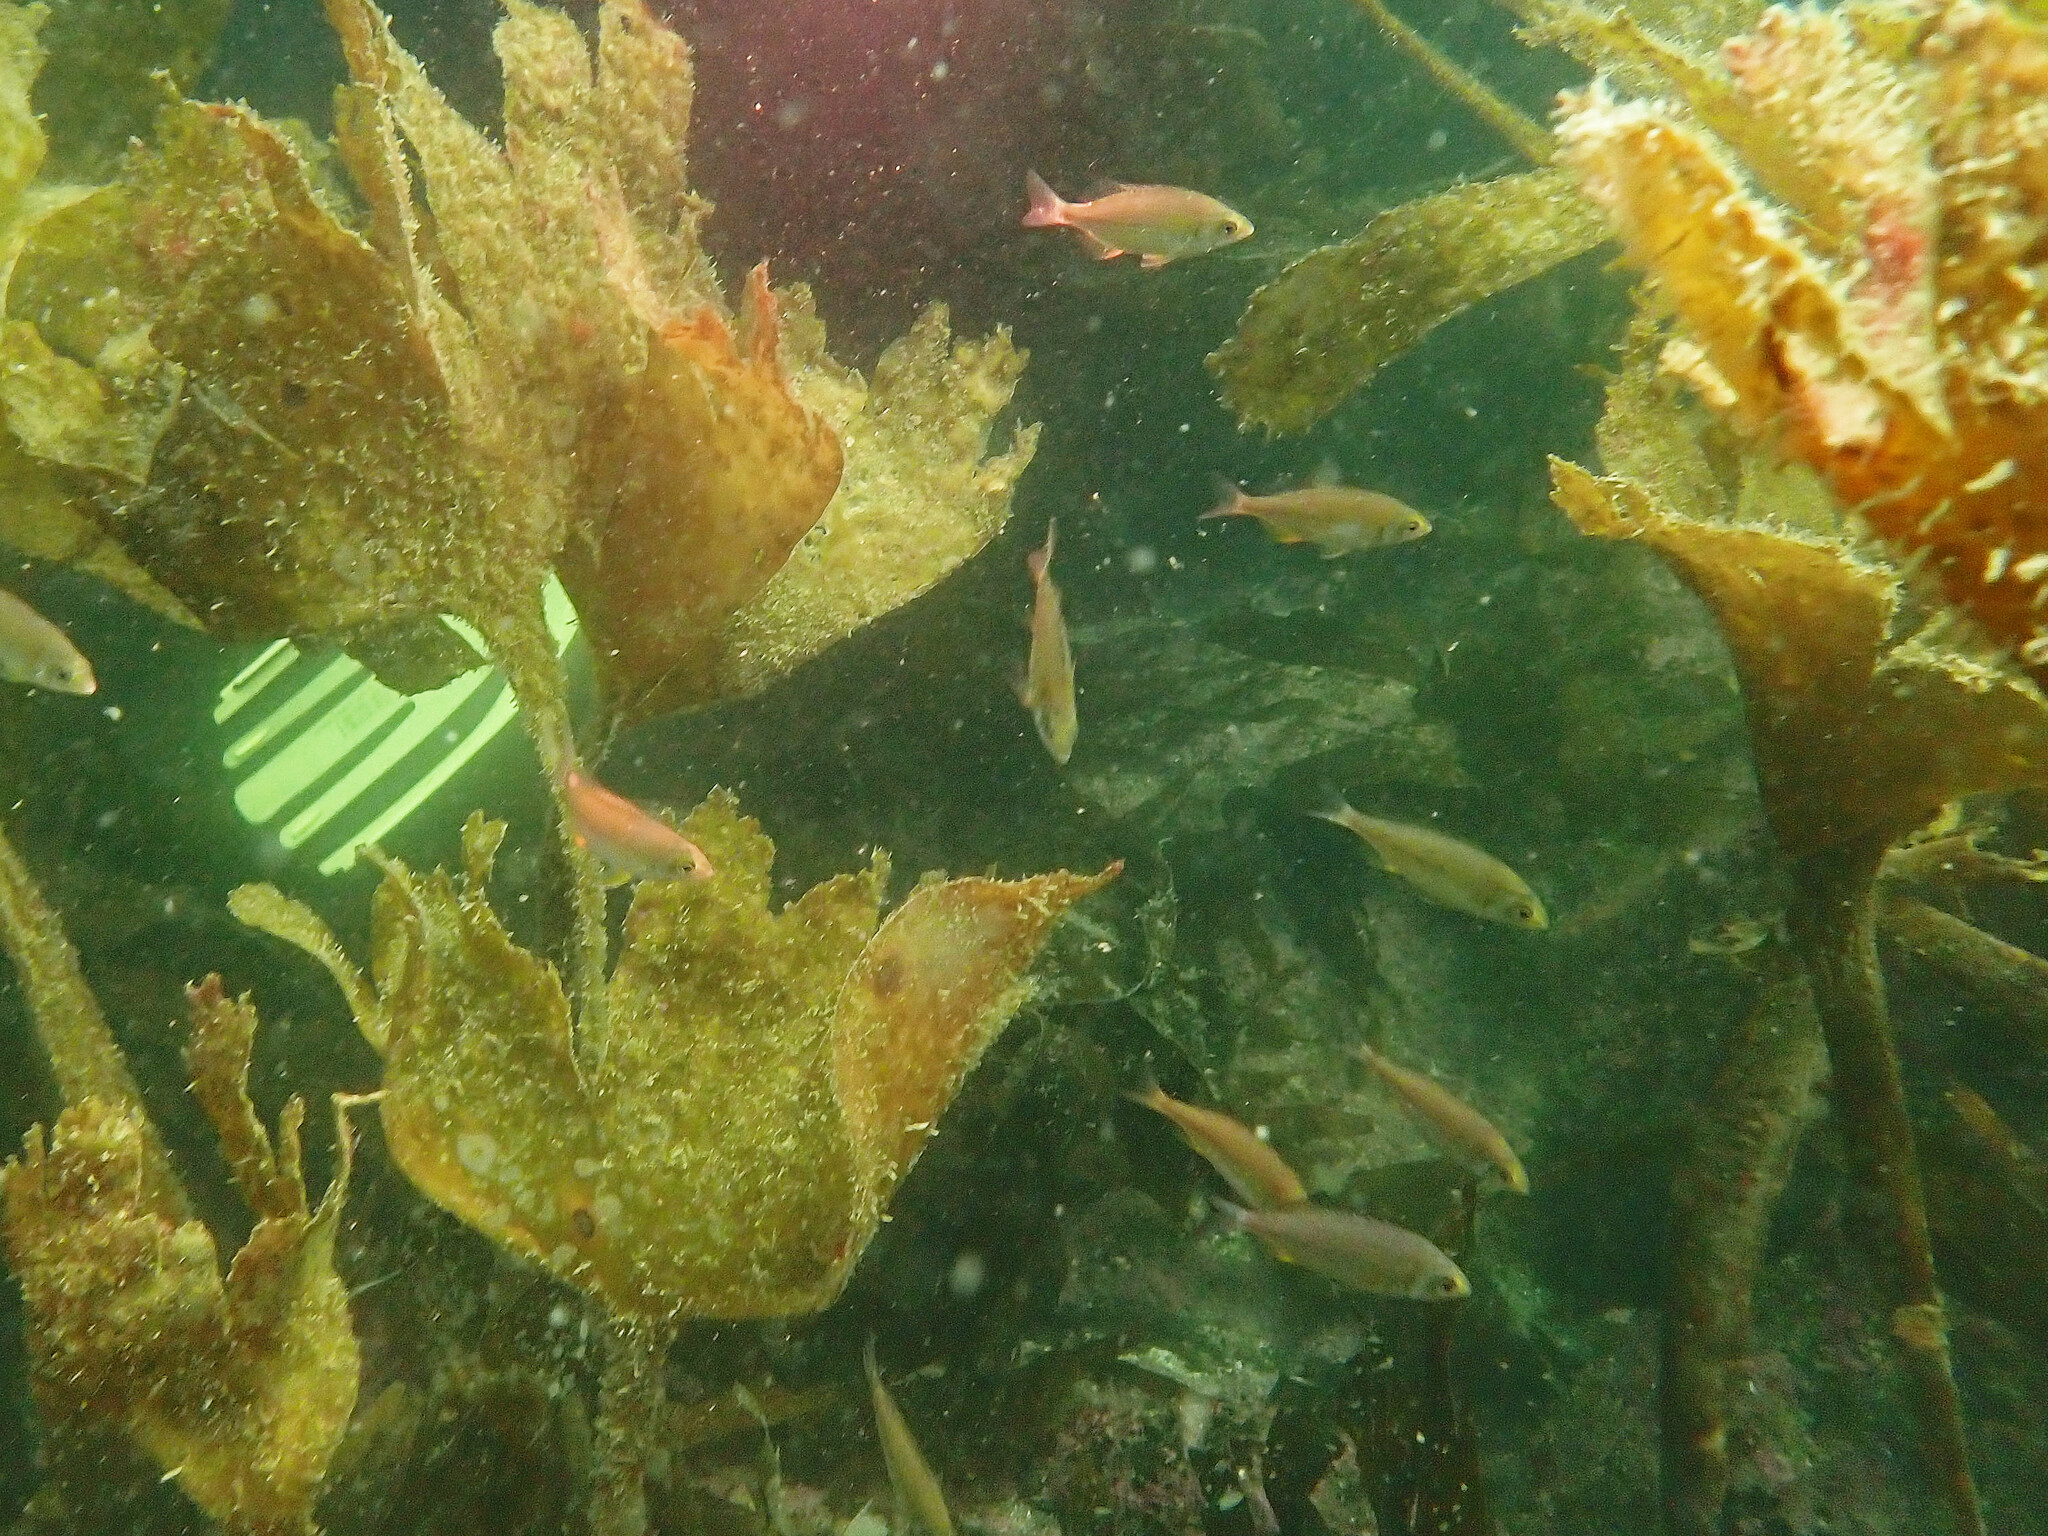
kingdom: Animalia
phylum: Chordata
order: Perciformes
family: Sparidae
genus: Spondyliosoma
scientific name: Spondyliosoma cantharus
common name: Black seabream
